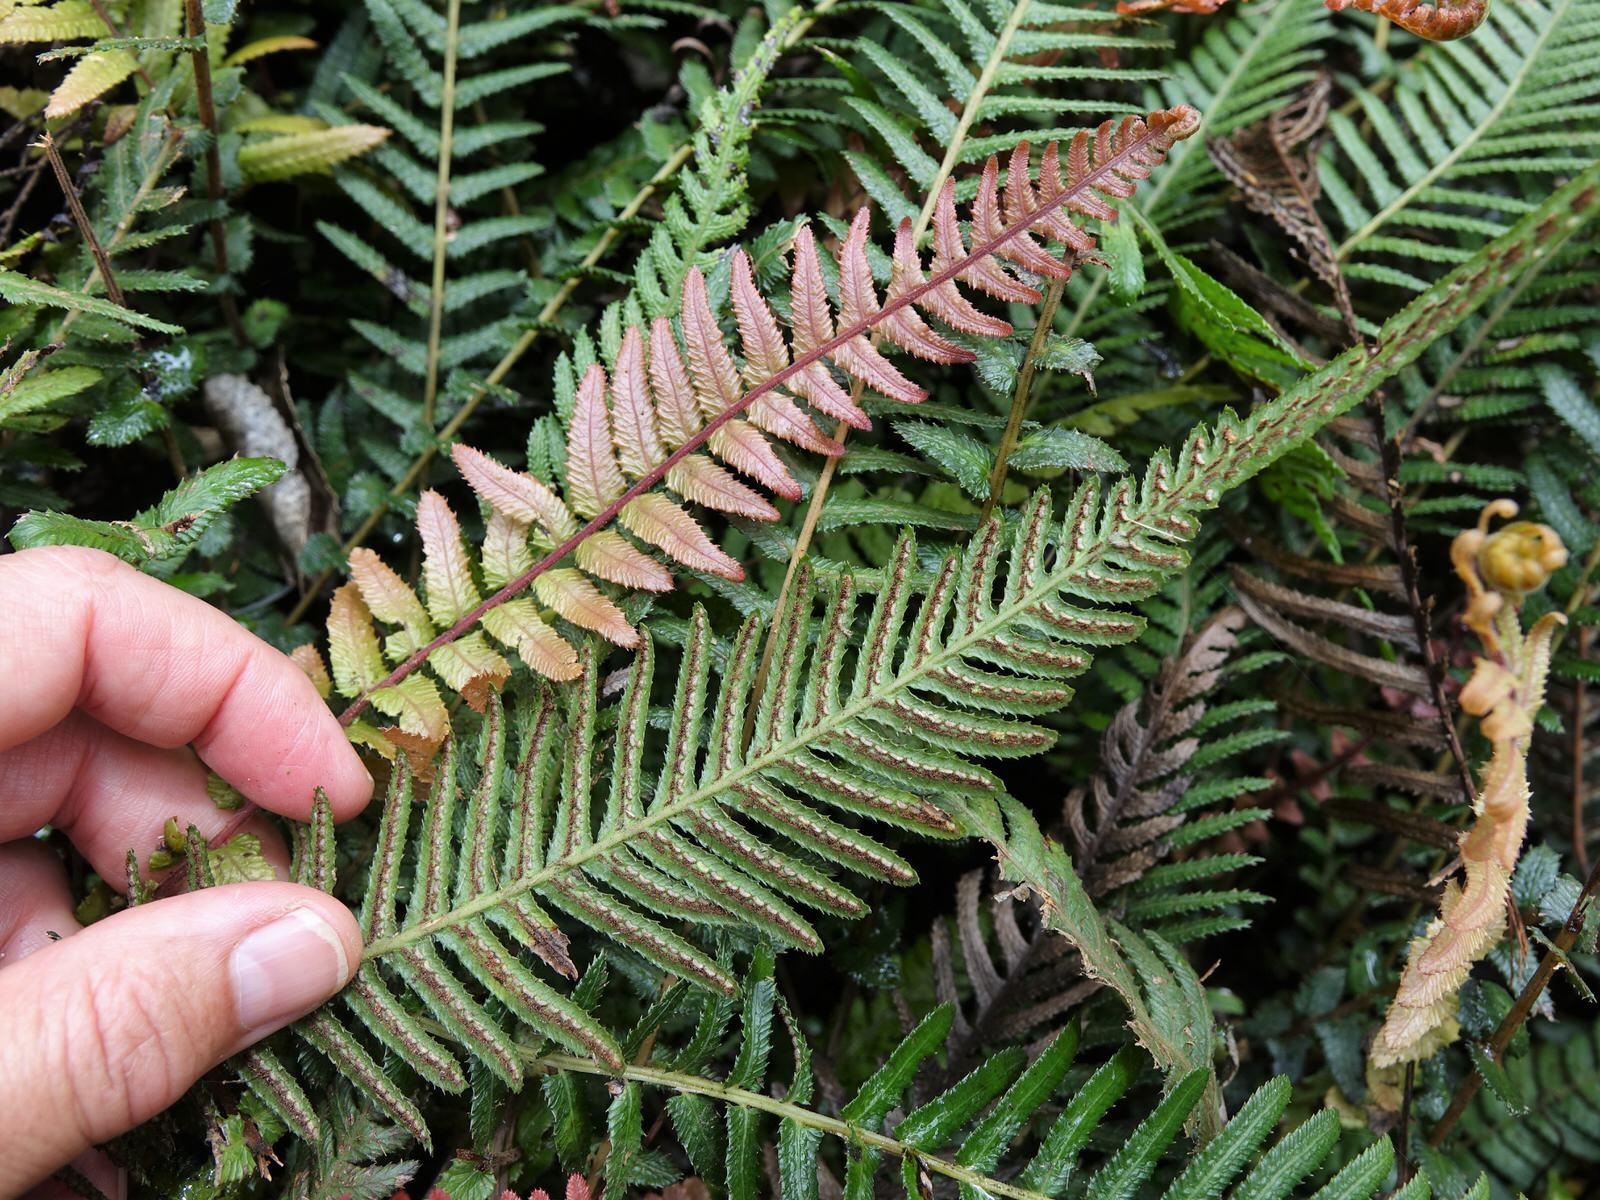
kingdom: Plantae
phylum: Tracheophyta
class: Polypodiopsida
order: Polypodiales
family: Blechnaceae
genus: Doodia
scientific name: Doodia australis
